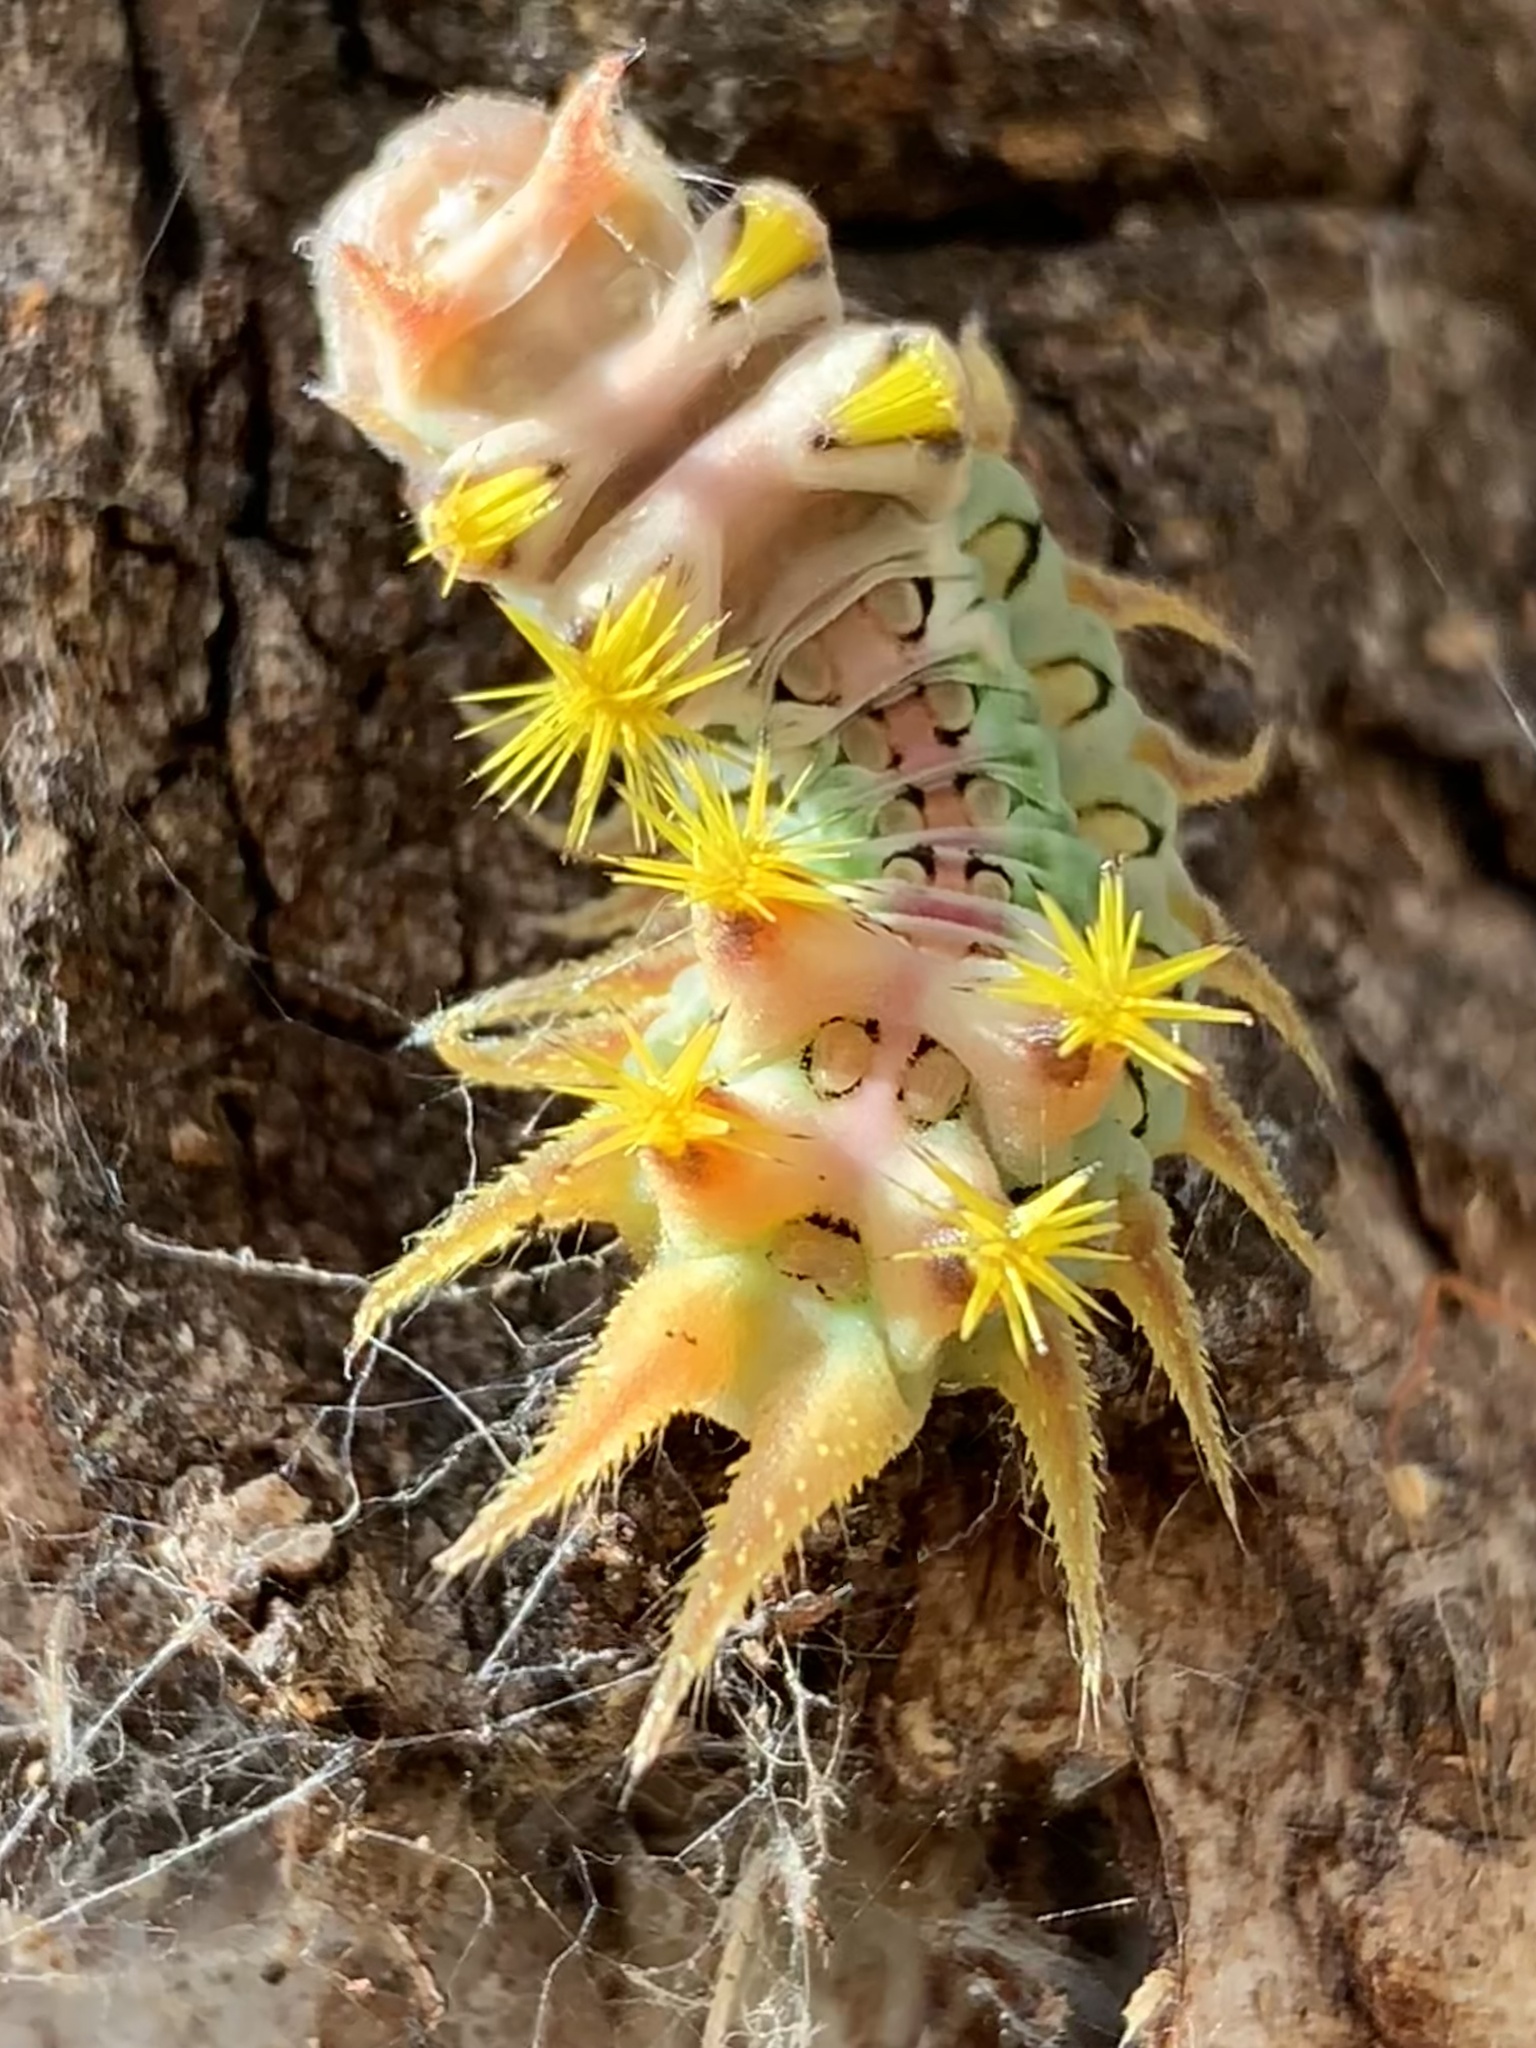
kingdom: Animalia
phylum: Arthropoda
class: Insecta
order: Lepidoptera
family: Limacodidae
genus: Doratifera
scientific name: Doratifera oxleyi
